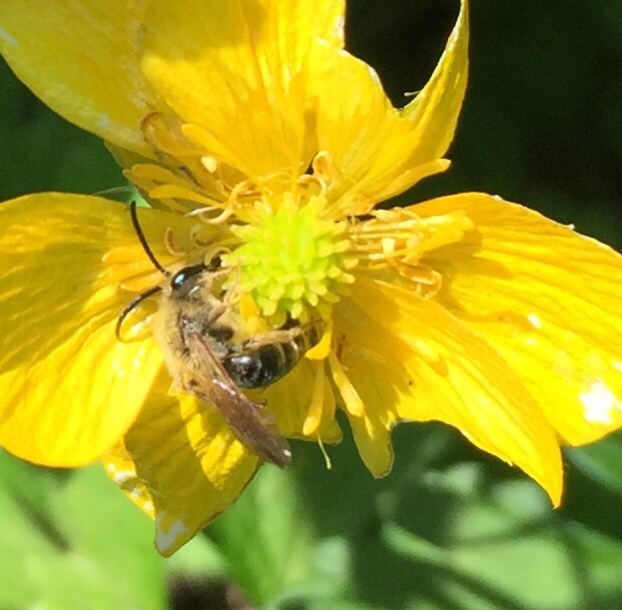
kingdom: Animalia
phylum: Arthropoda
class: Insecta
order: Hymenoptera
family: Andrenidae
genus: Andrena
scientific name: Andrena
